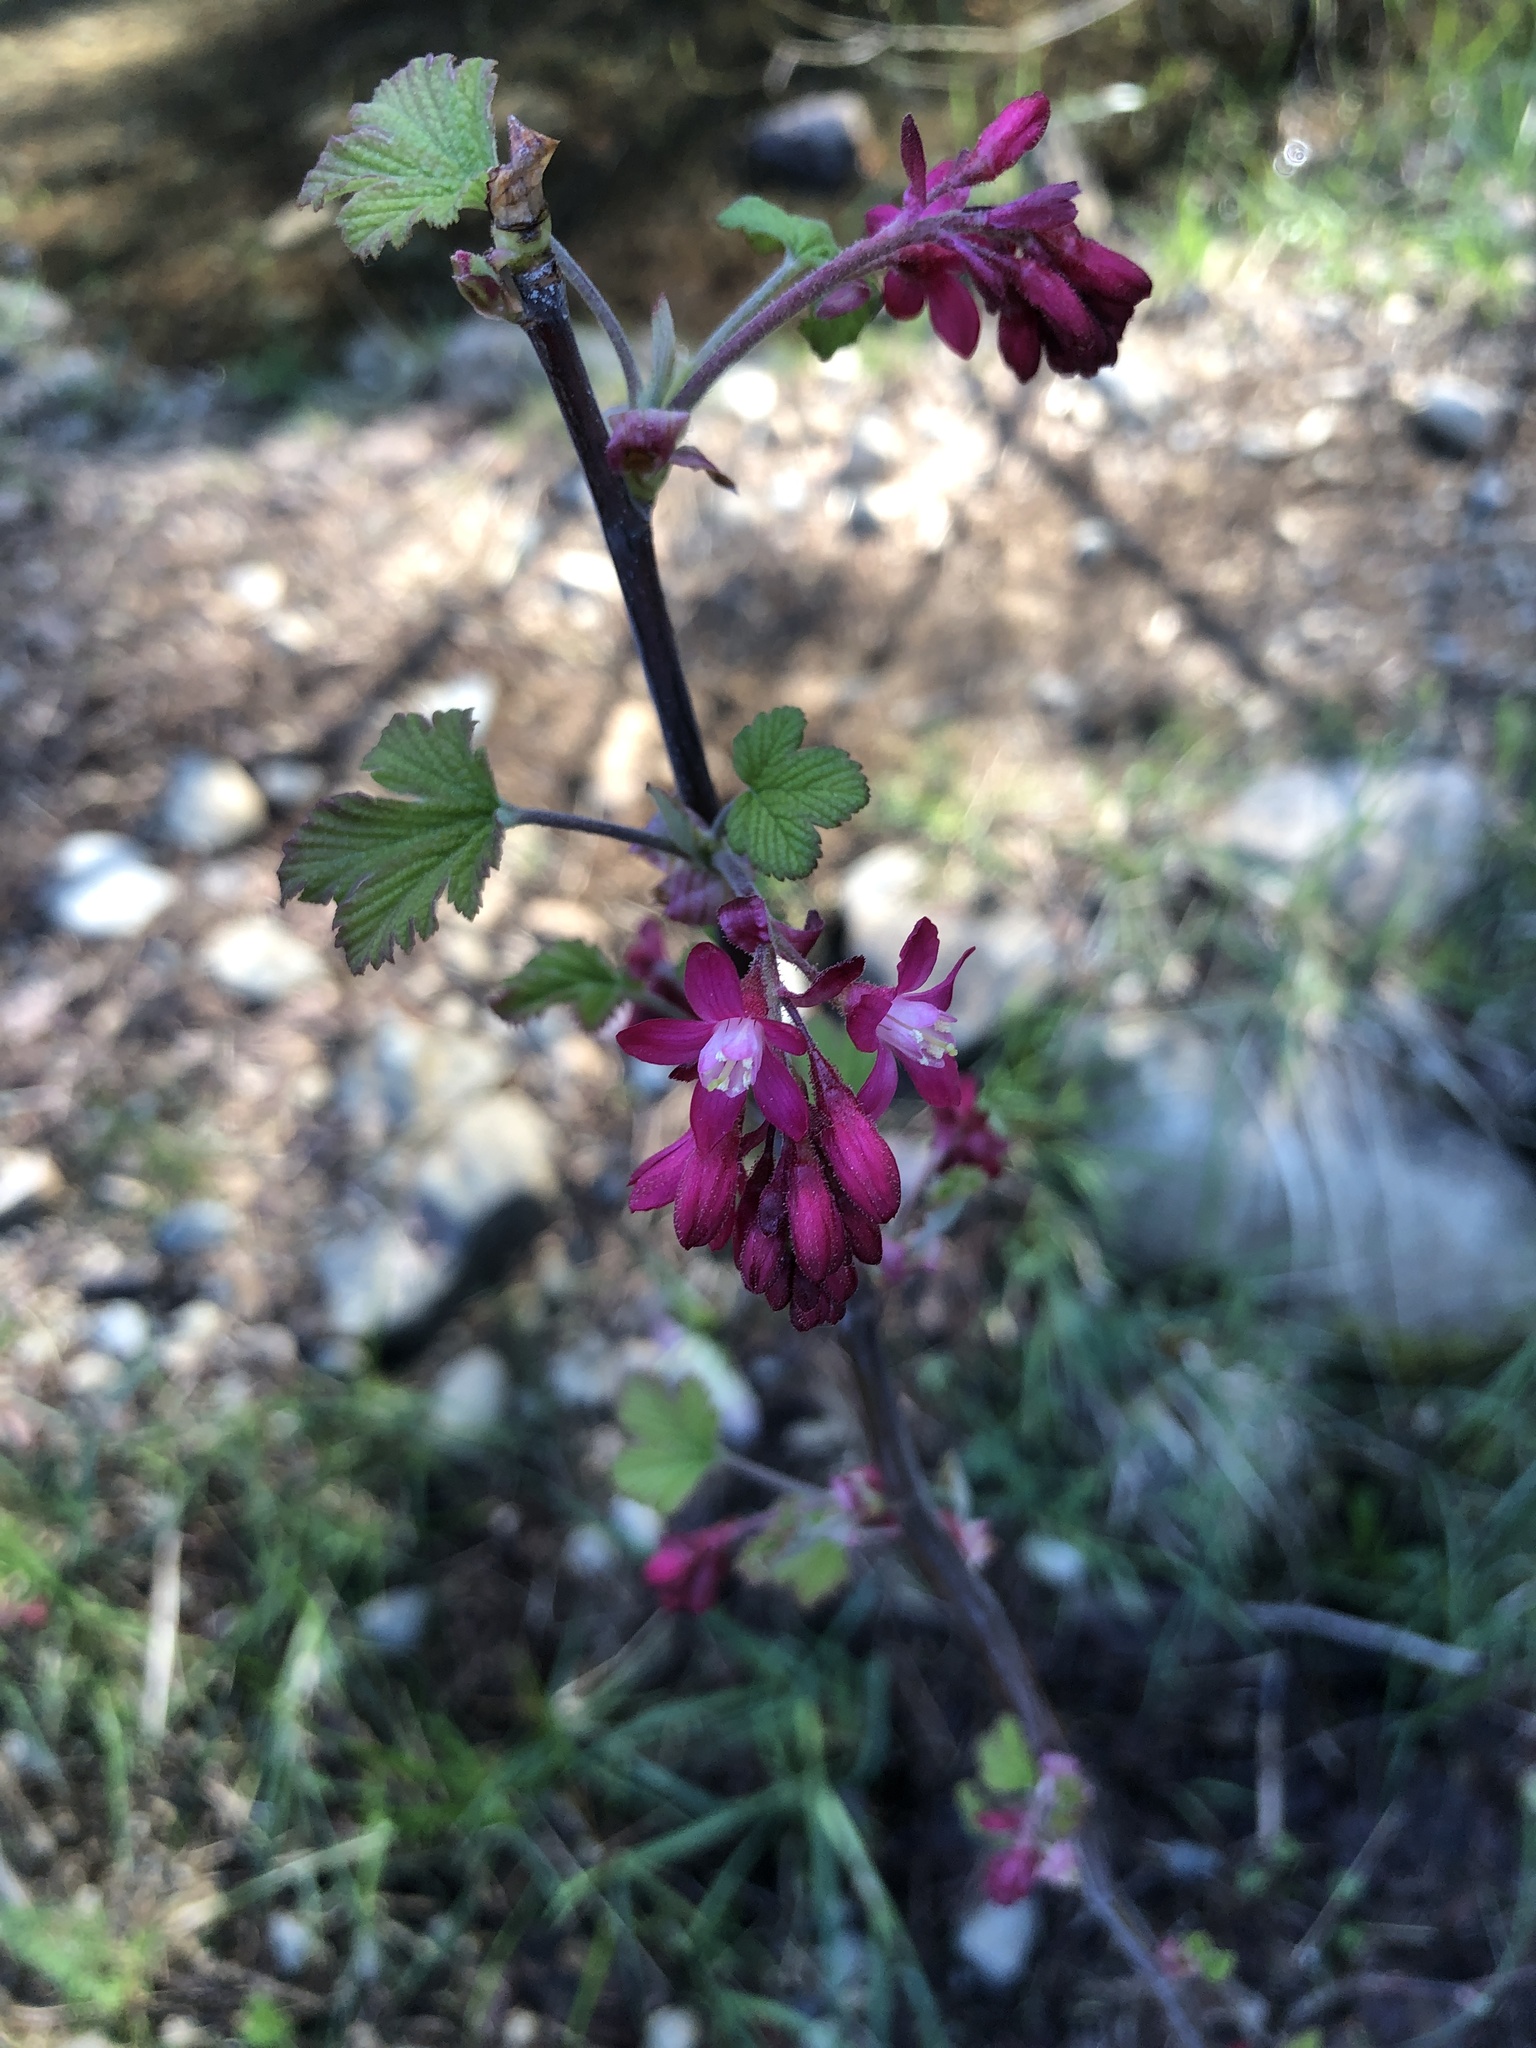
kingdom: Plantae
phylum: Tracheophyta
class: Magnoliopsida
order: Saxifragales
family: Grossulariaceae
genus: Ribes
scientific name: Ribes sanguineum
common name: Flowering currant
